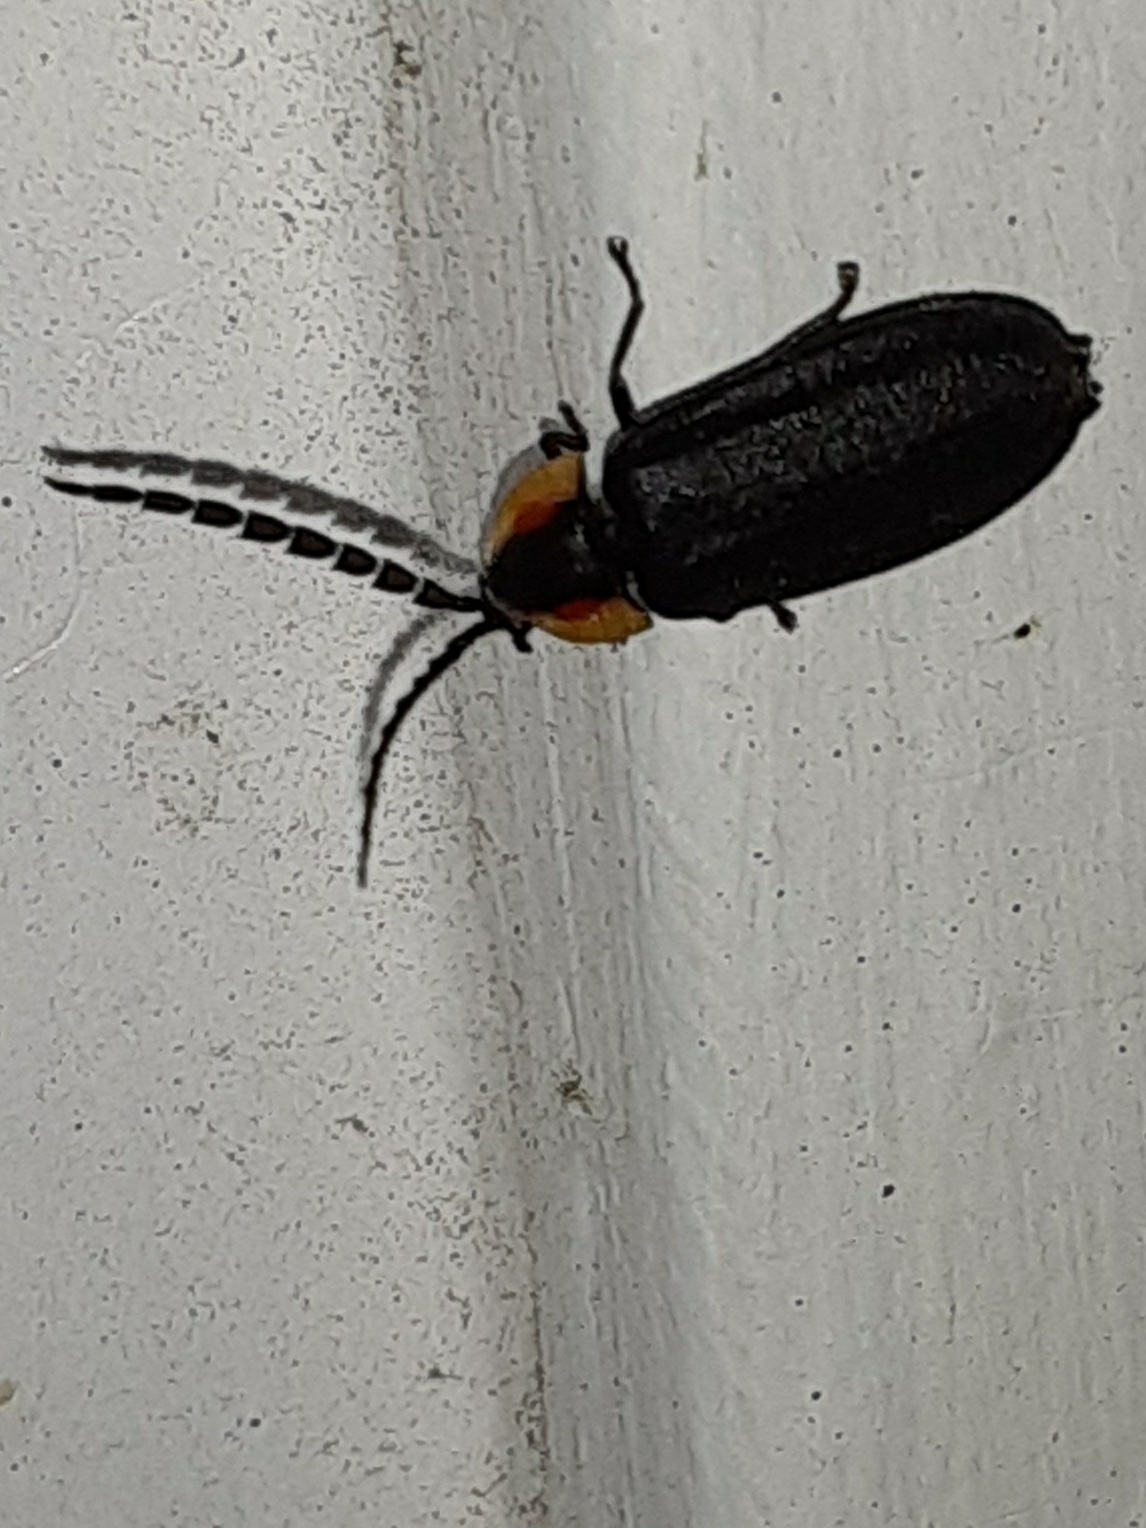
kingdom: Animalia
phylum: Arthropoda
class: Insecta
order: Coleoptera
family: Lampyridae
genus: Lucidota
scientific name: Lucidota atra
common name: Black firefly
